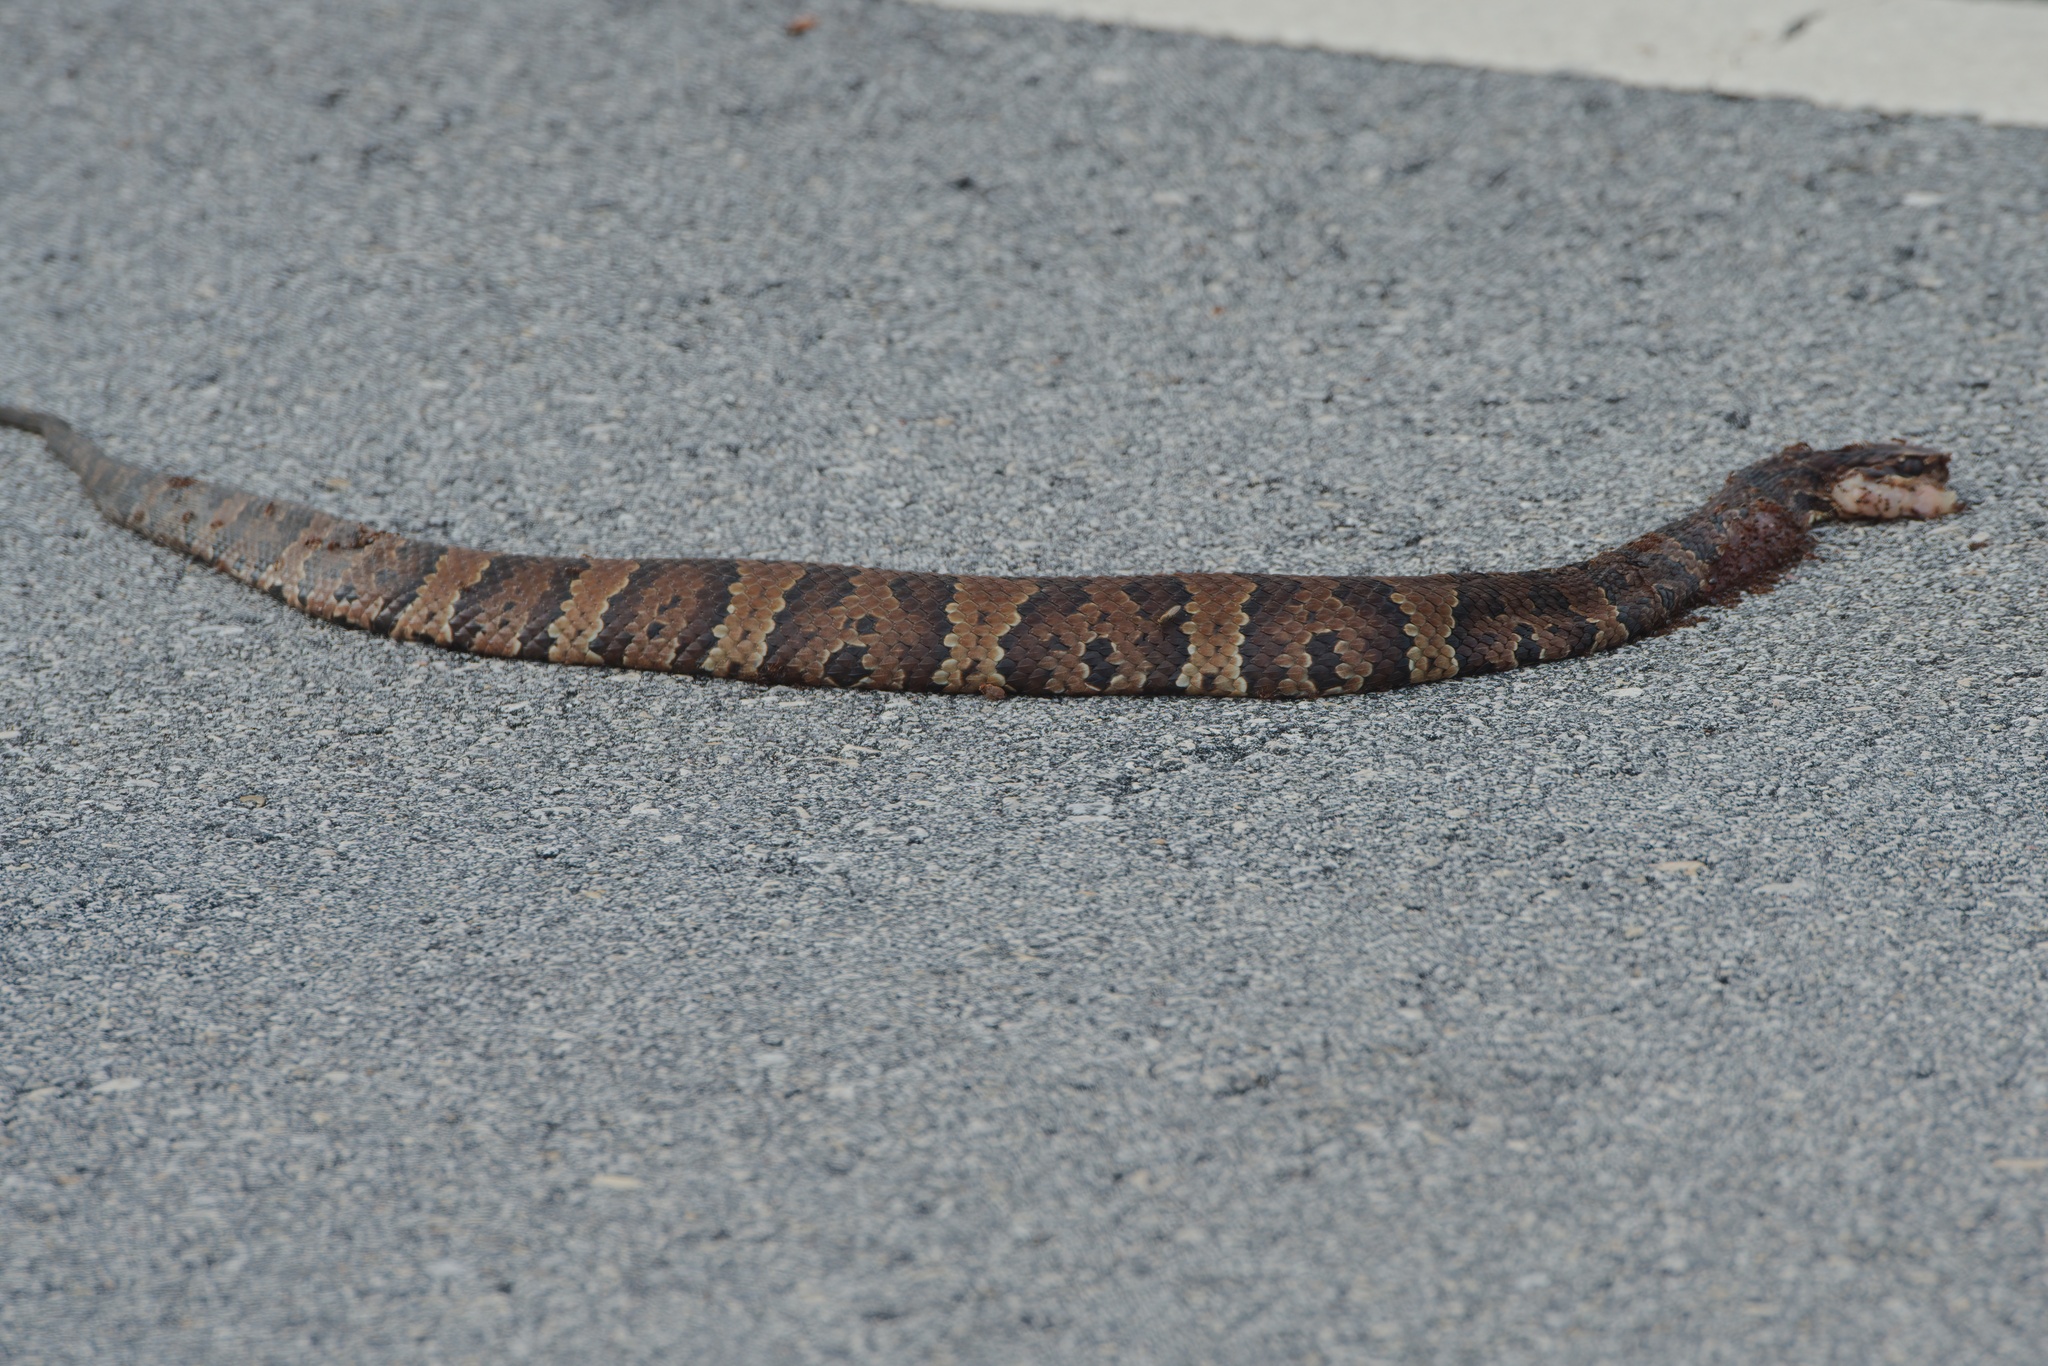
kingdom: Animalia
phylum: Chordata
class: Squamata
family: Viperidae
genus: Agkistrodon
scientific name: Agkistrodon conanti
